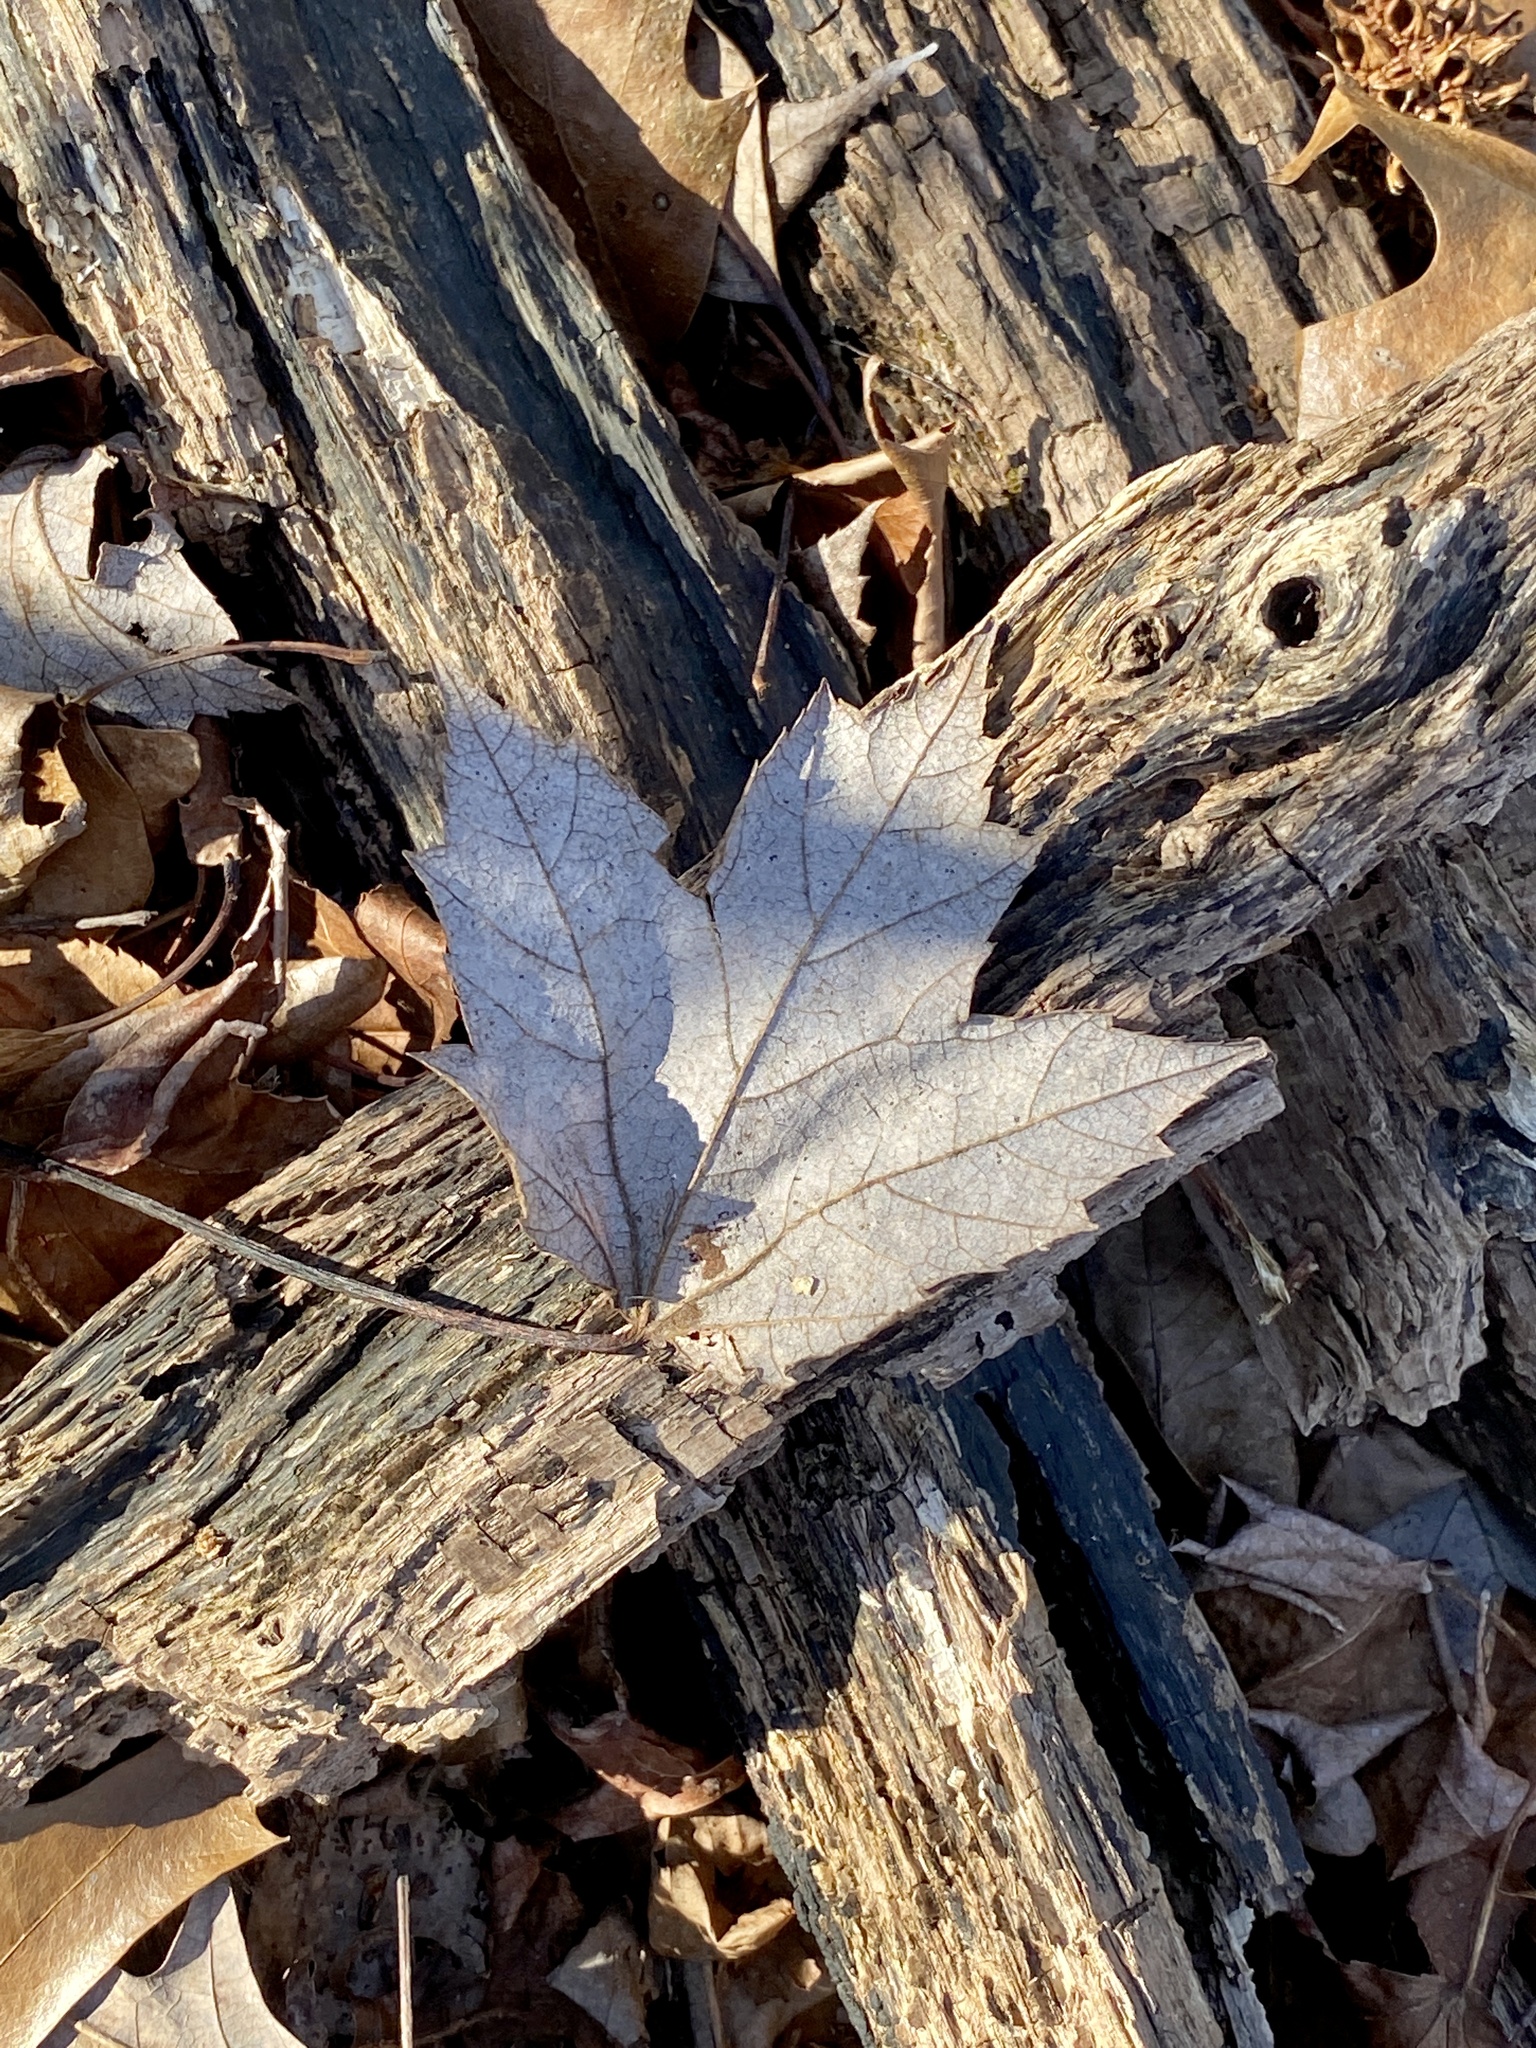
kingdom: Plantae
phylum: Tracheophyta
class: Magnoliopsida
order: Sapindales
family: Sapindaceae
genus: Acer
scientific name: Acer rubrum
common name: Red maple
